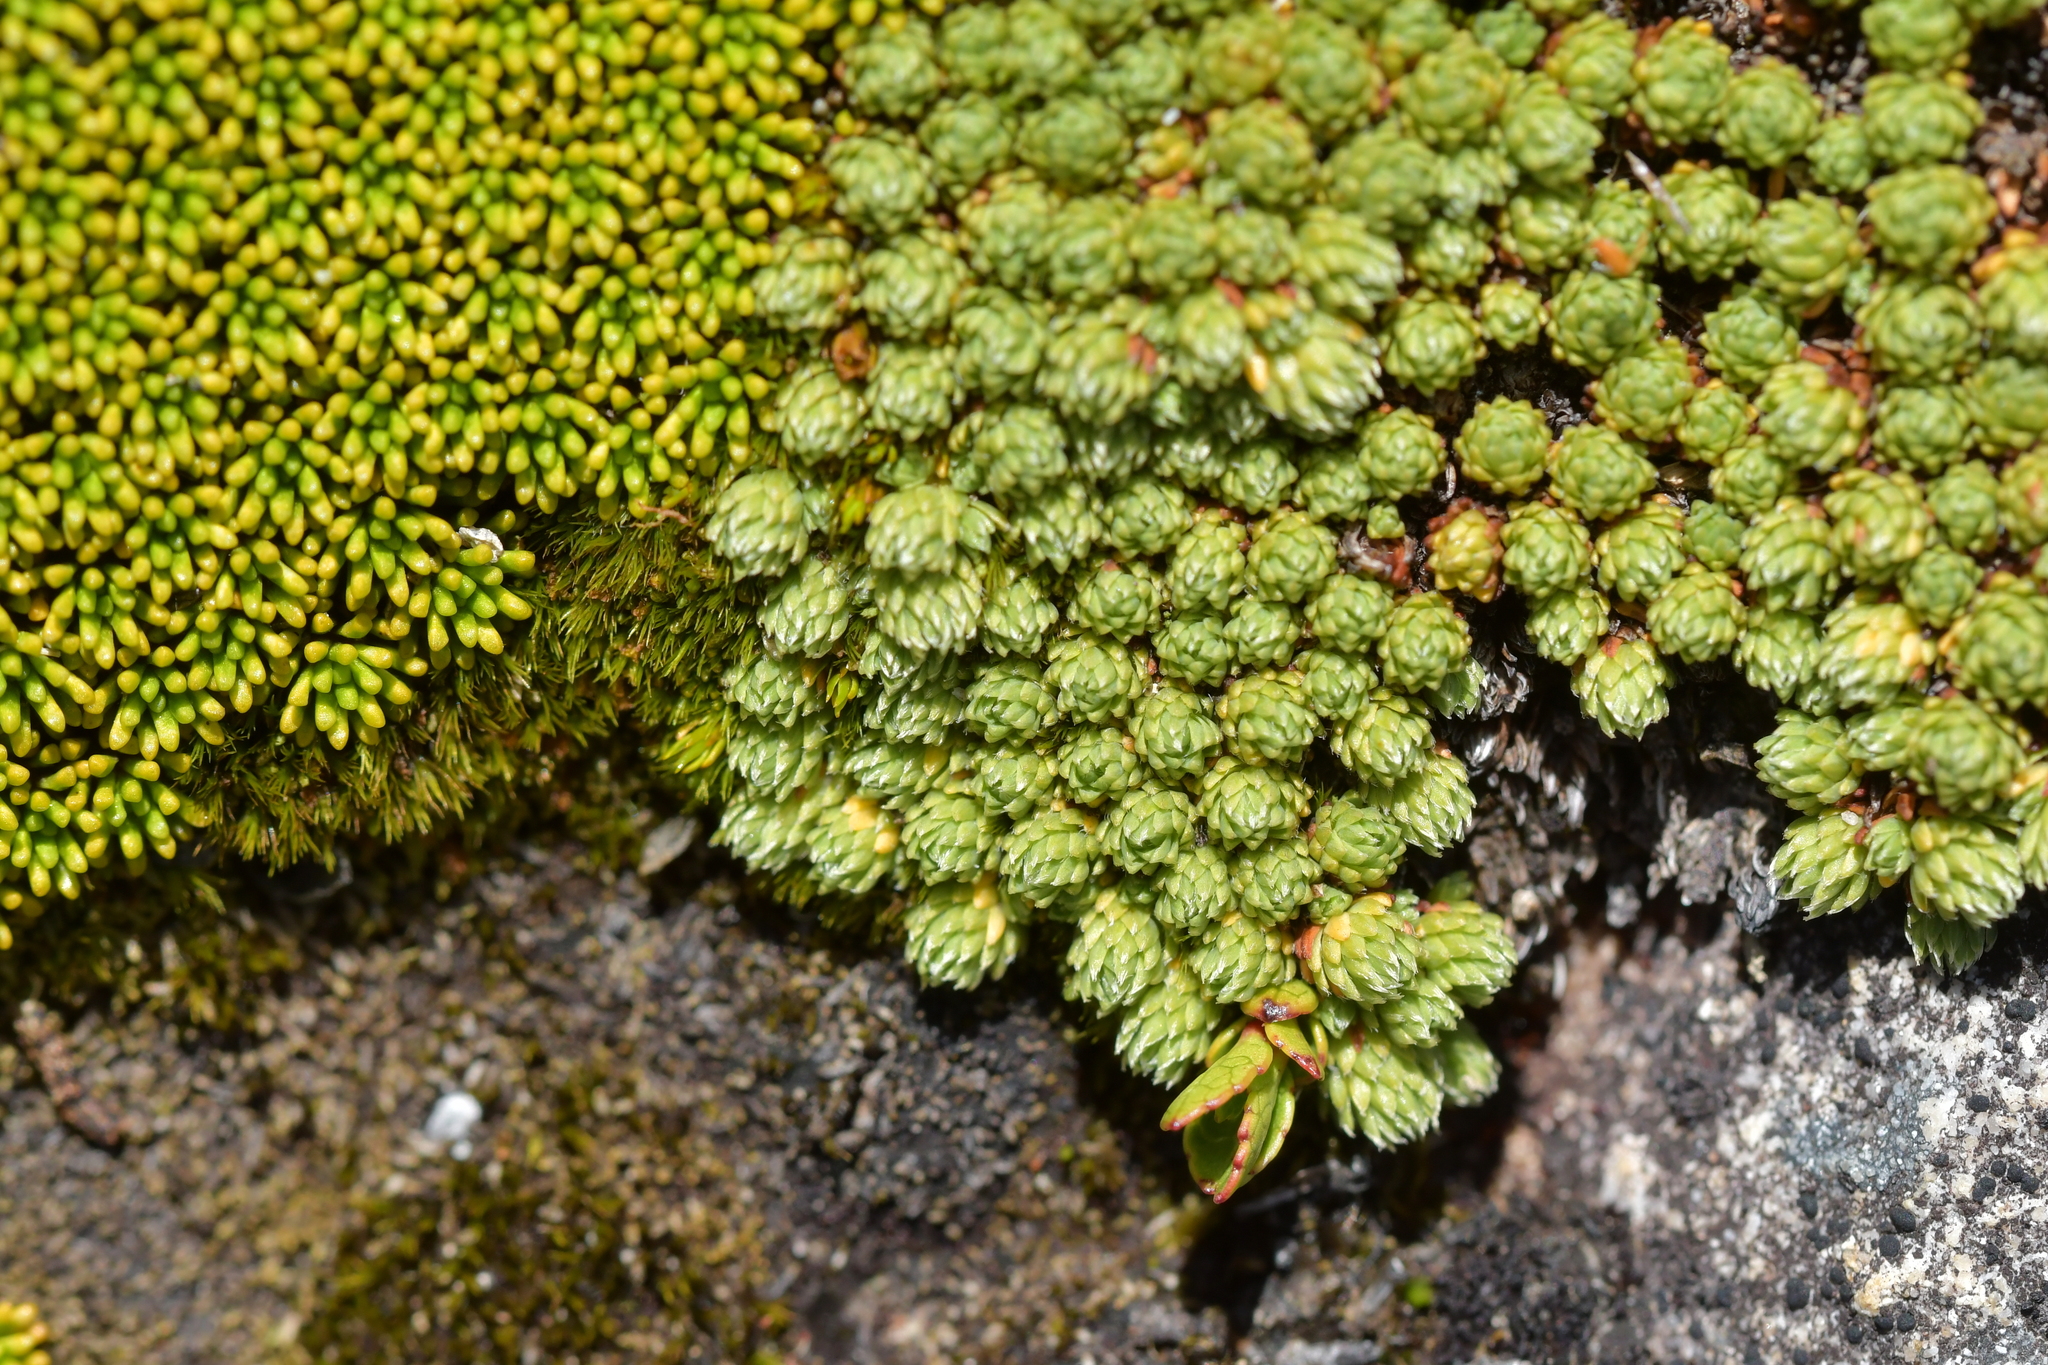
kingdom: Plantae
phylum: Tracheophyta
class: Magnoliopsida
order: Malvales
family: Thymelaeaceae
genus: Kelleria
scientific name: Kelleria dieffenbachii
